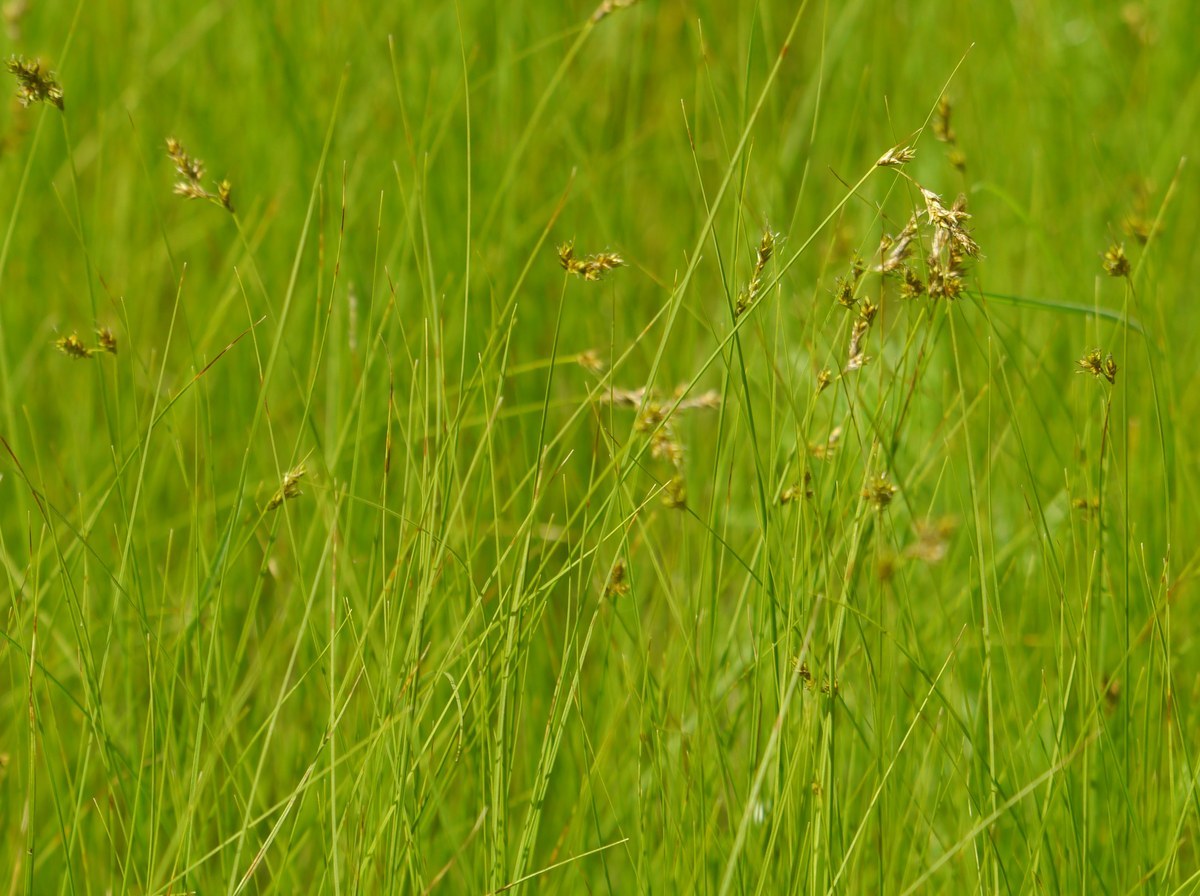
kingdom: Plantae
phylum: Tracheophyta
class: Liliopsida
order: Poales
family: Cyperaceae
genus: Carex
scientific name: Carex praecox
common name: Early sedge
